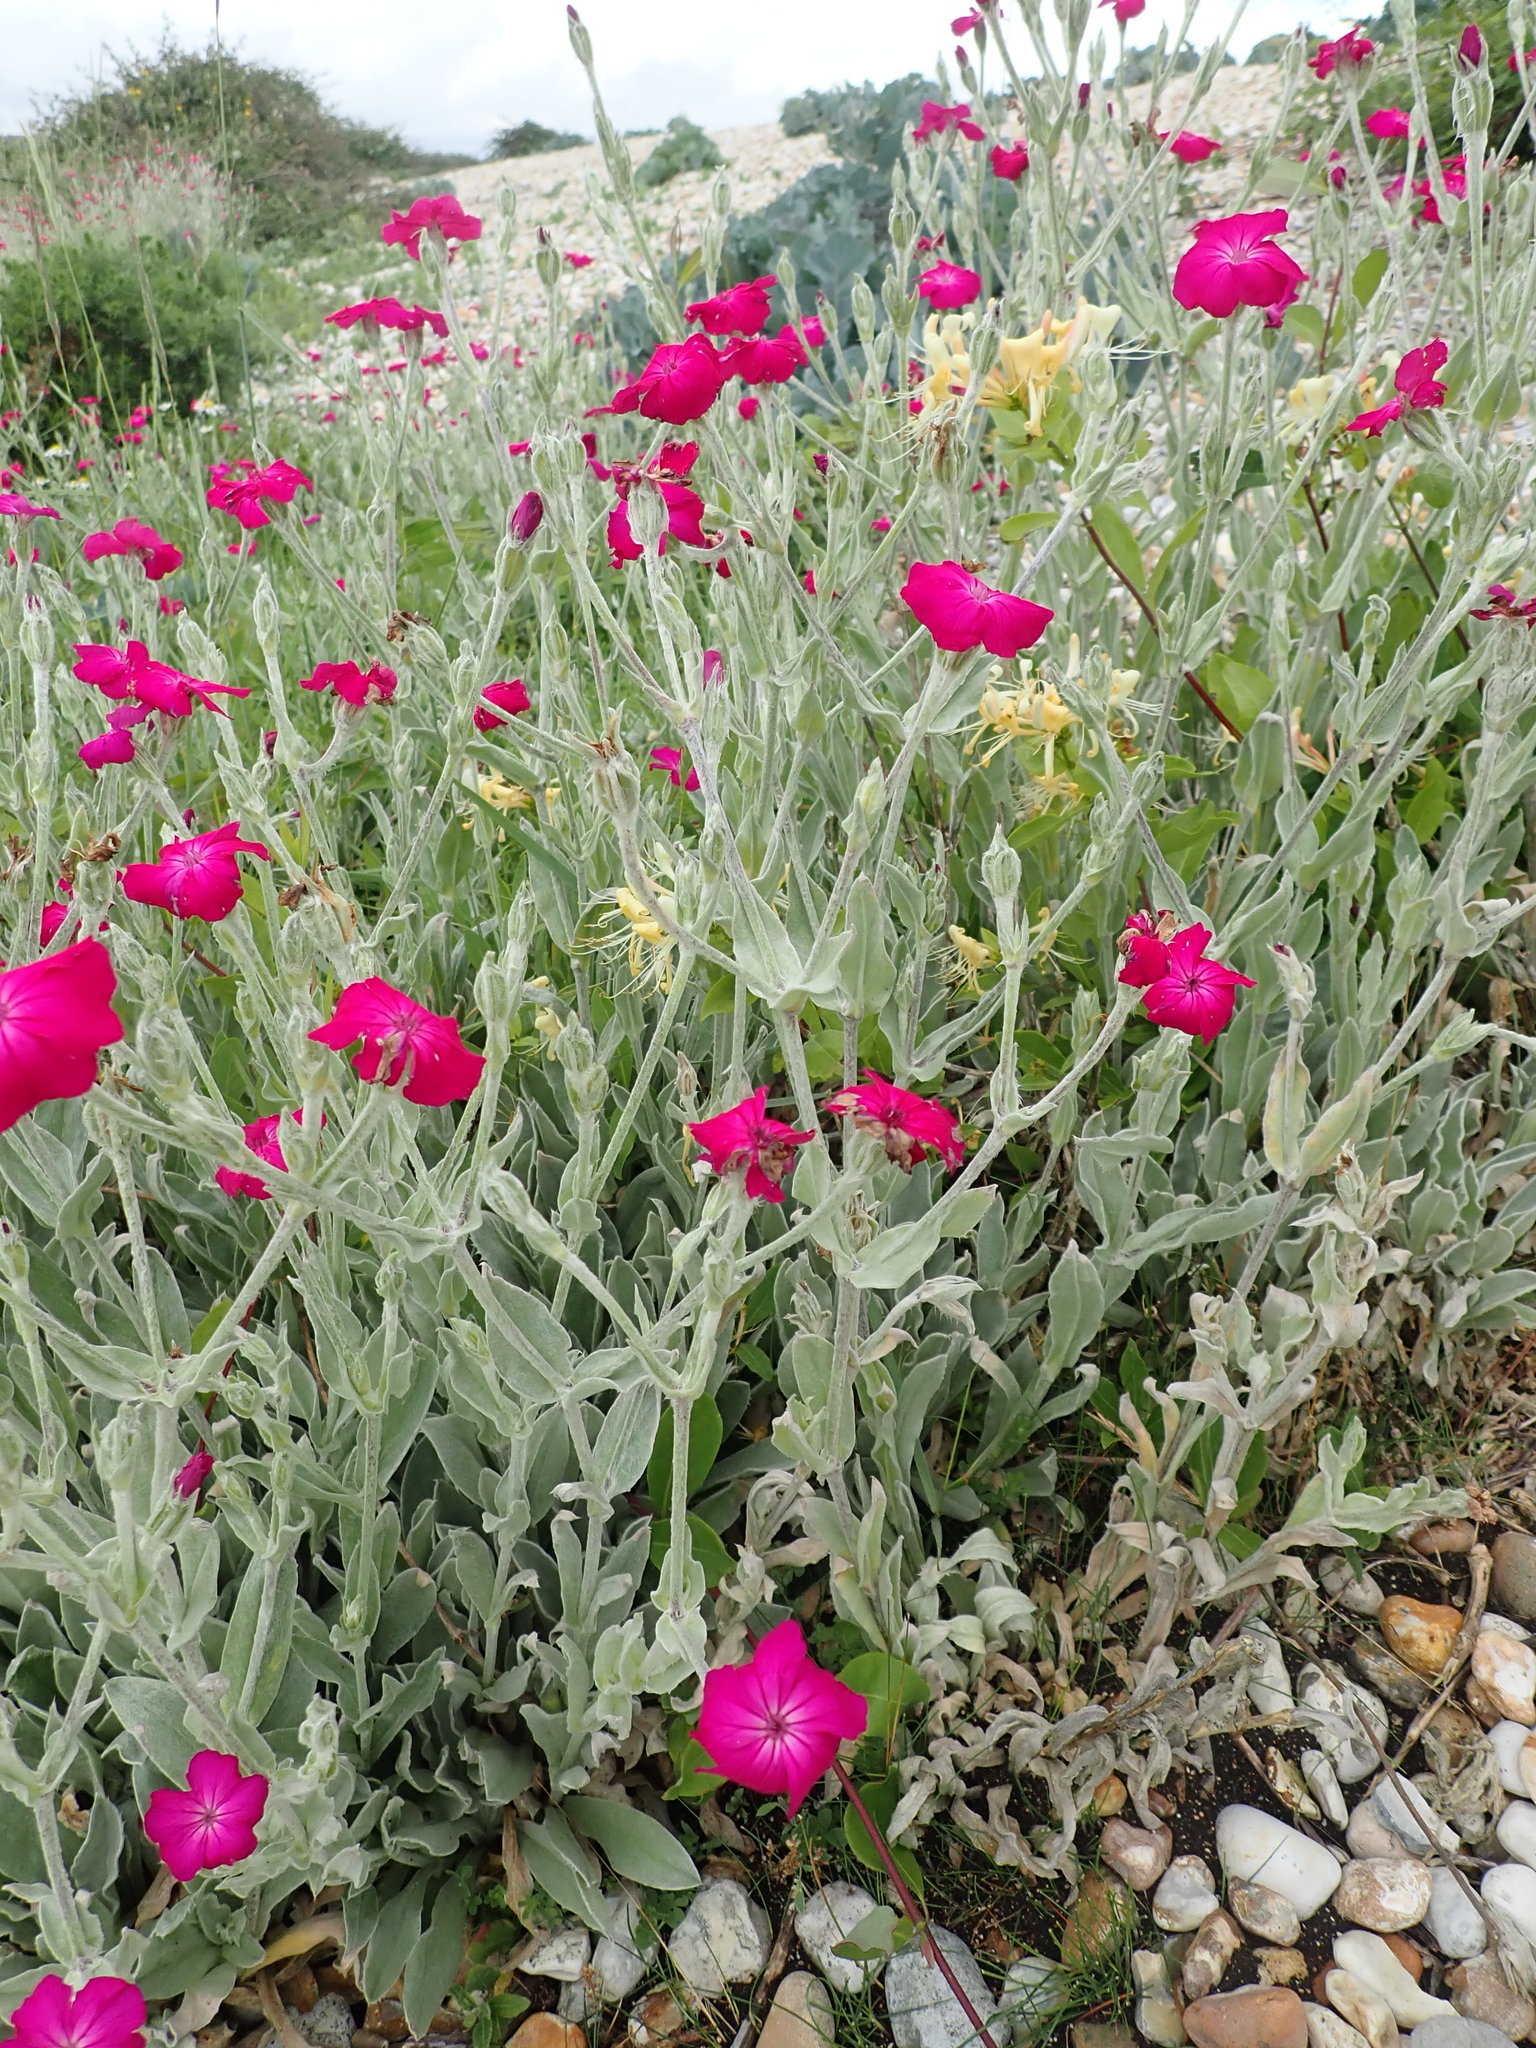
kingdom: Plantae
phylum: Tracheophyta
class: Magnoliopsida
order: Caryophyllales
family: Caryophyllaceae
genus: Silene
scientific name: Silene coronaria
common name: Rose campion
